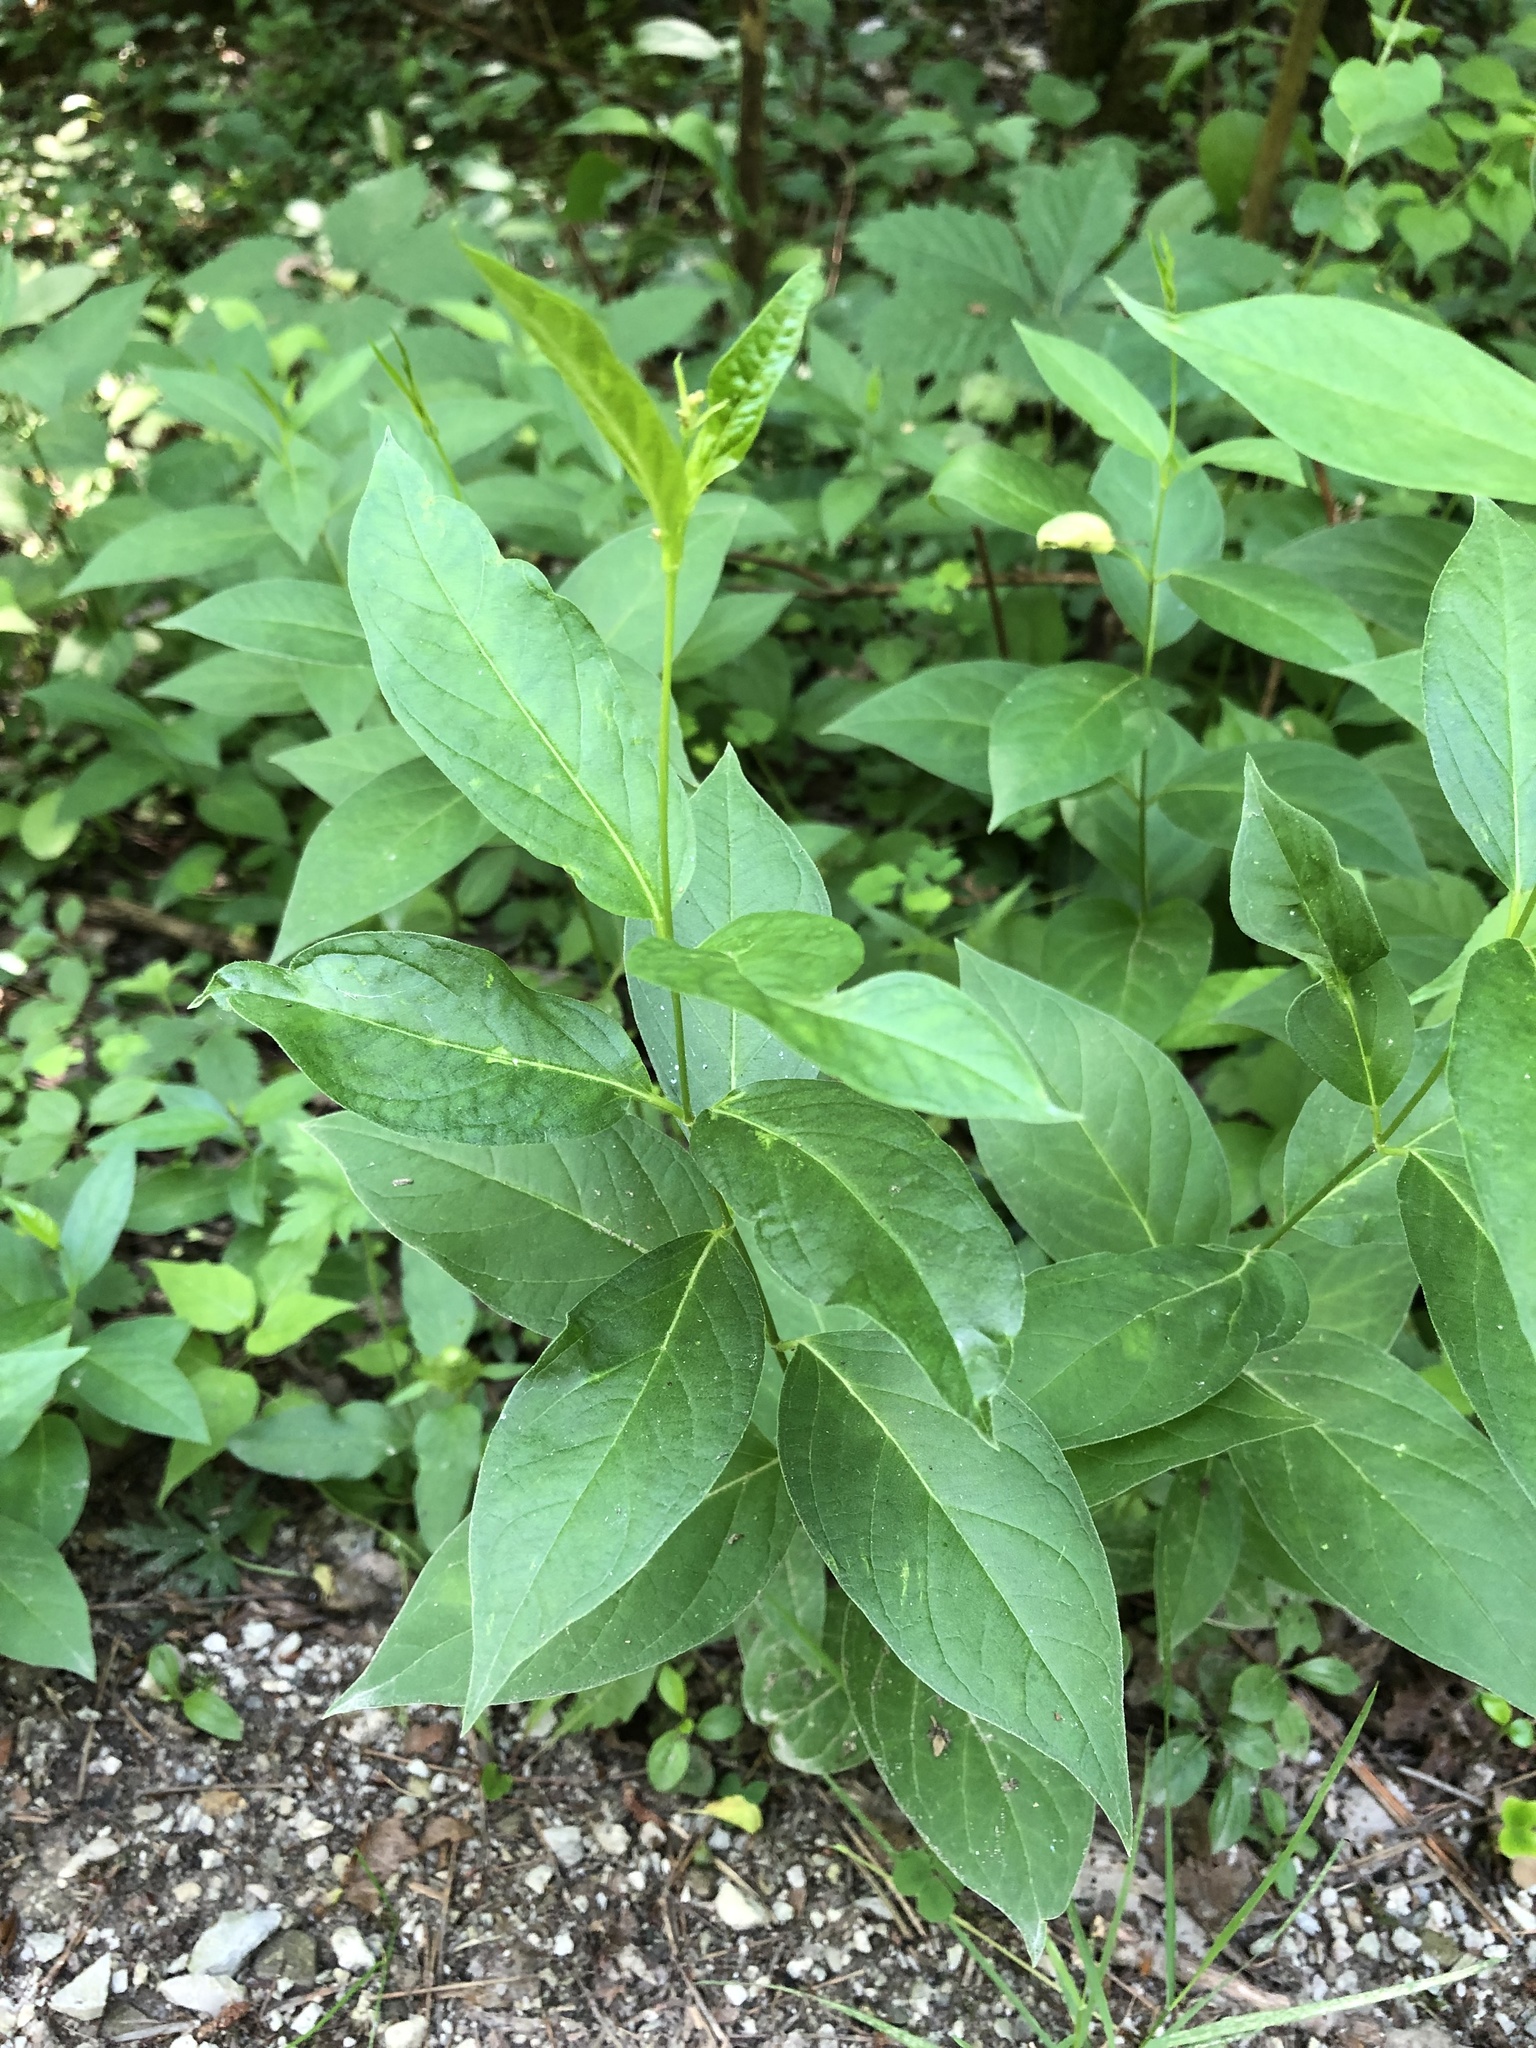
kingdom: Plantae
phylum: Tracheophyta
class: Magnoliopsida
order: Gentianales
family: Apocynaceae
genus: Vincetoxicum
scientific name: Vincetoxicum rossicum
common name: Dog-strangling vine
